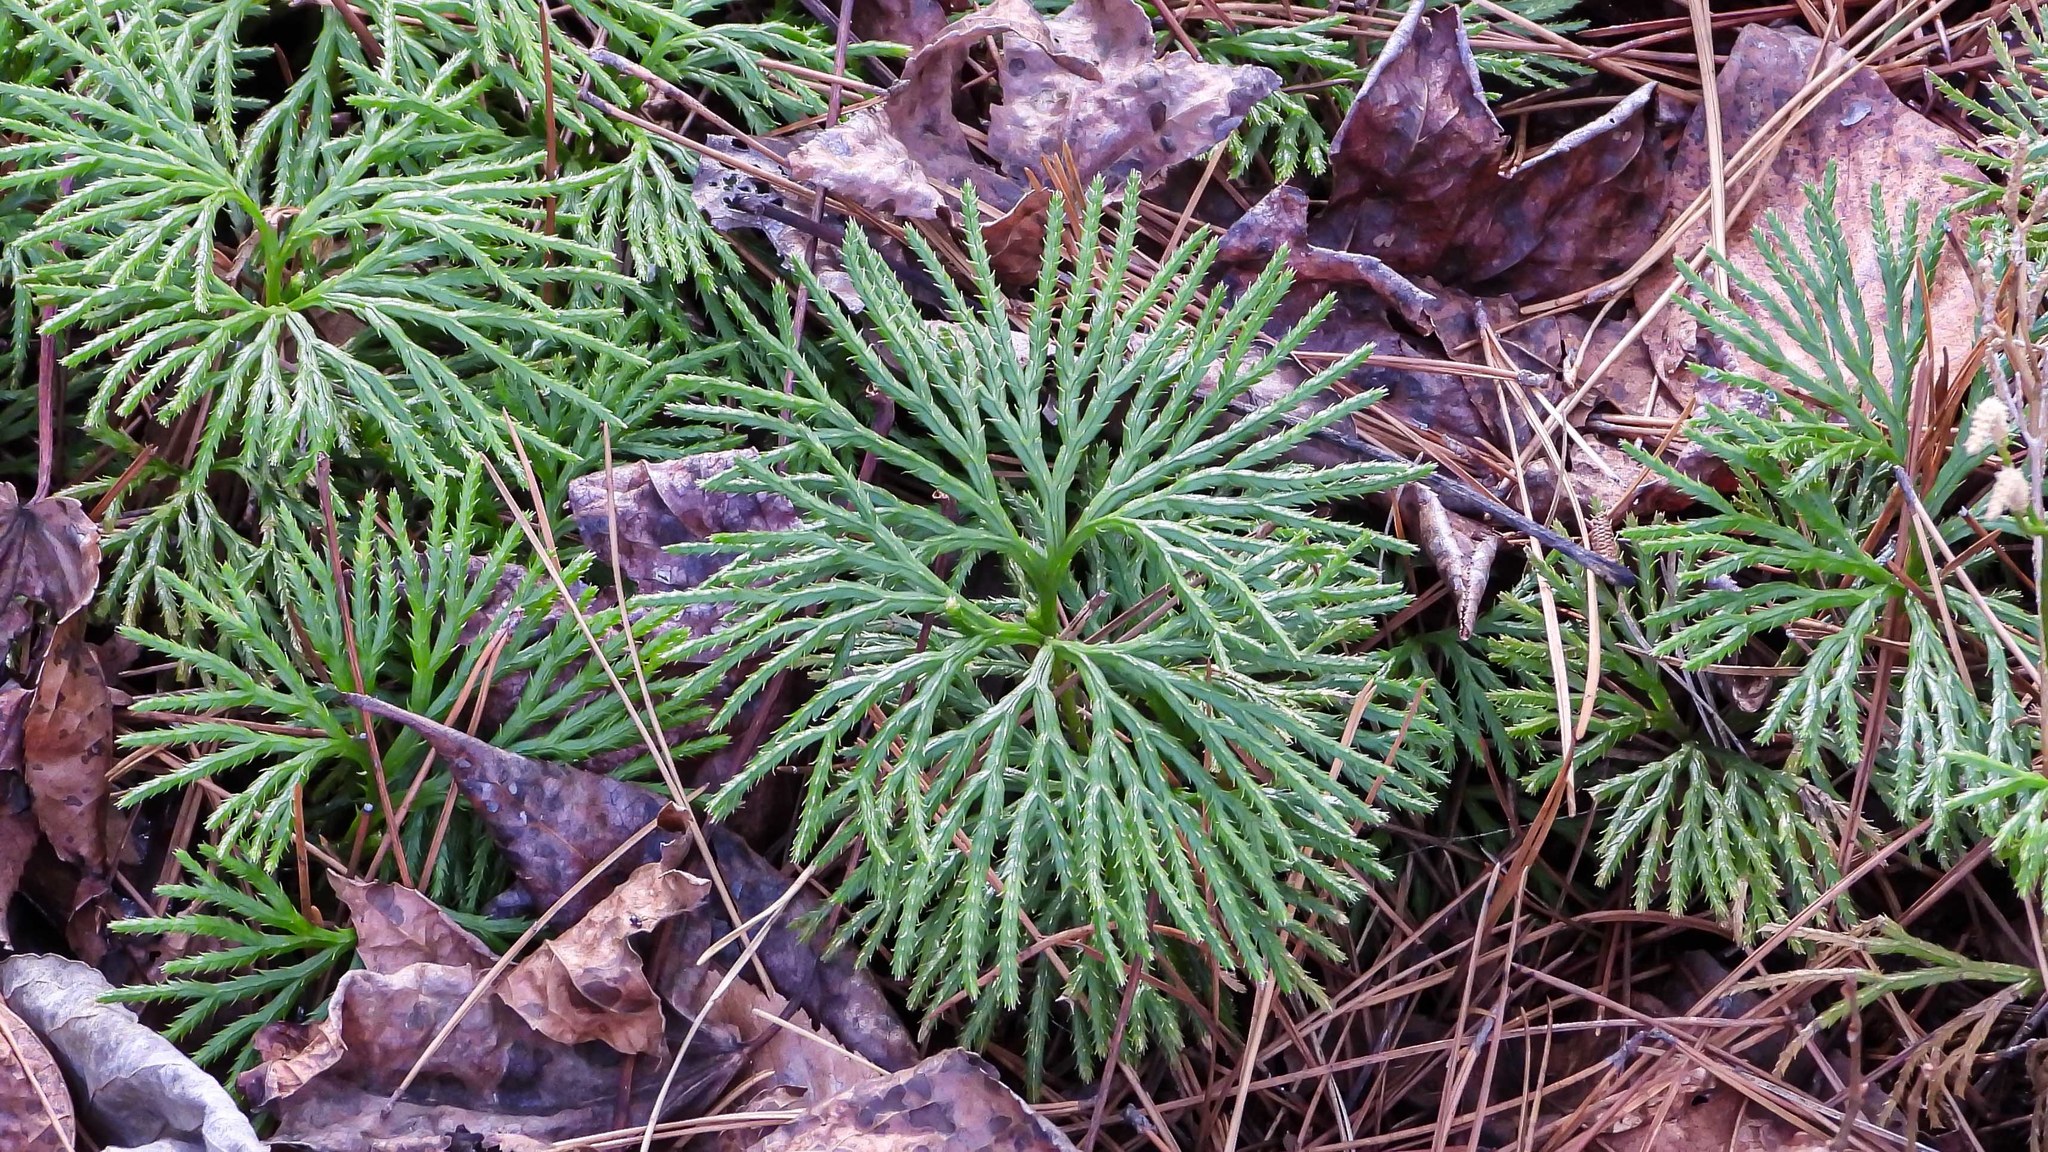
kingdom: Plantae
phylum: Tracheophyta
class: Lycopodiopsida
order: Lycopodiales
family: Lycopodiaceae
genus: Diphasiastrum
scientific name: Diphasiastrum digitatum
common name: Southern running-pine
